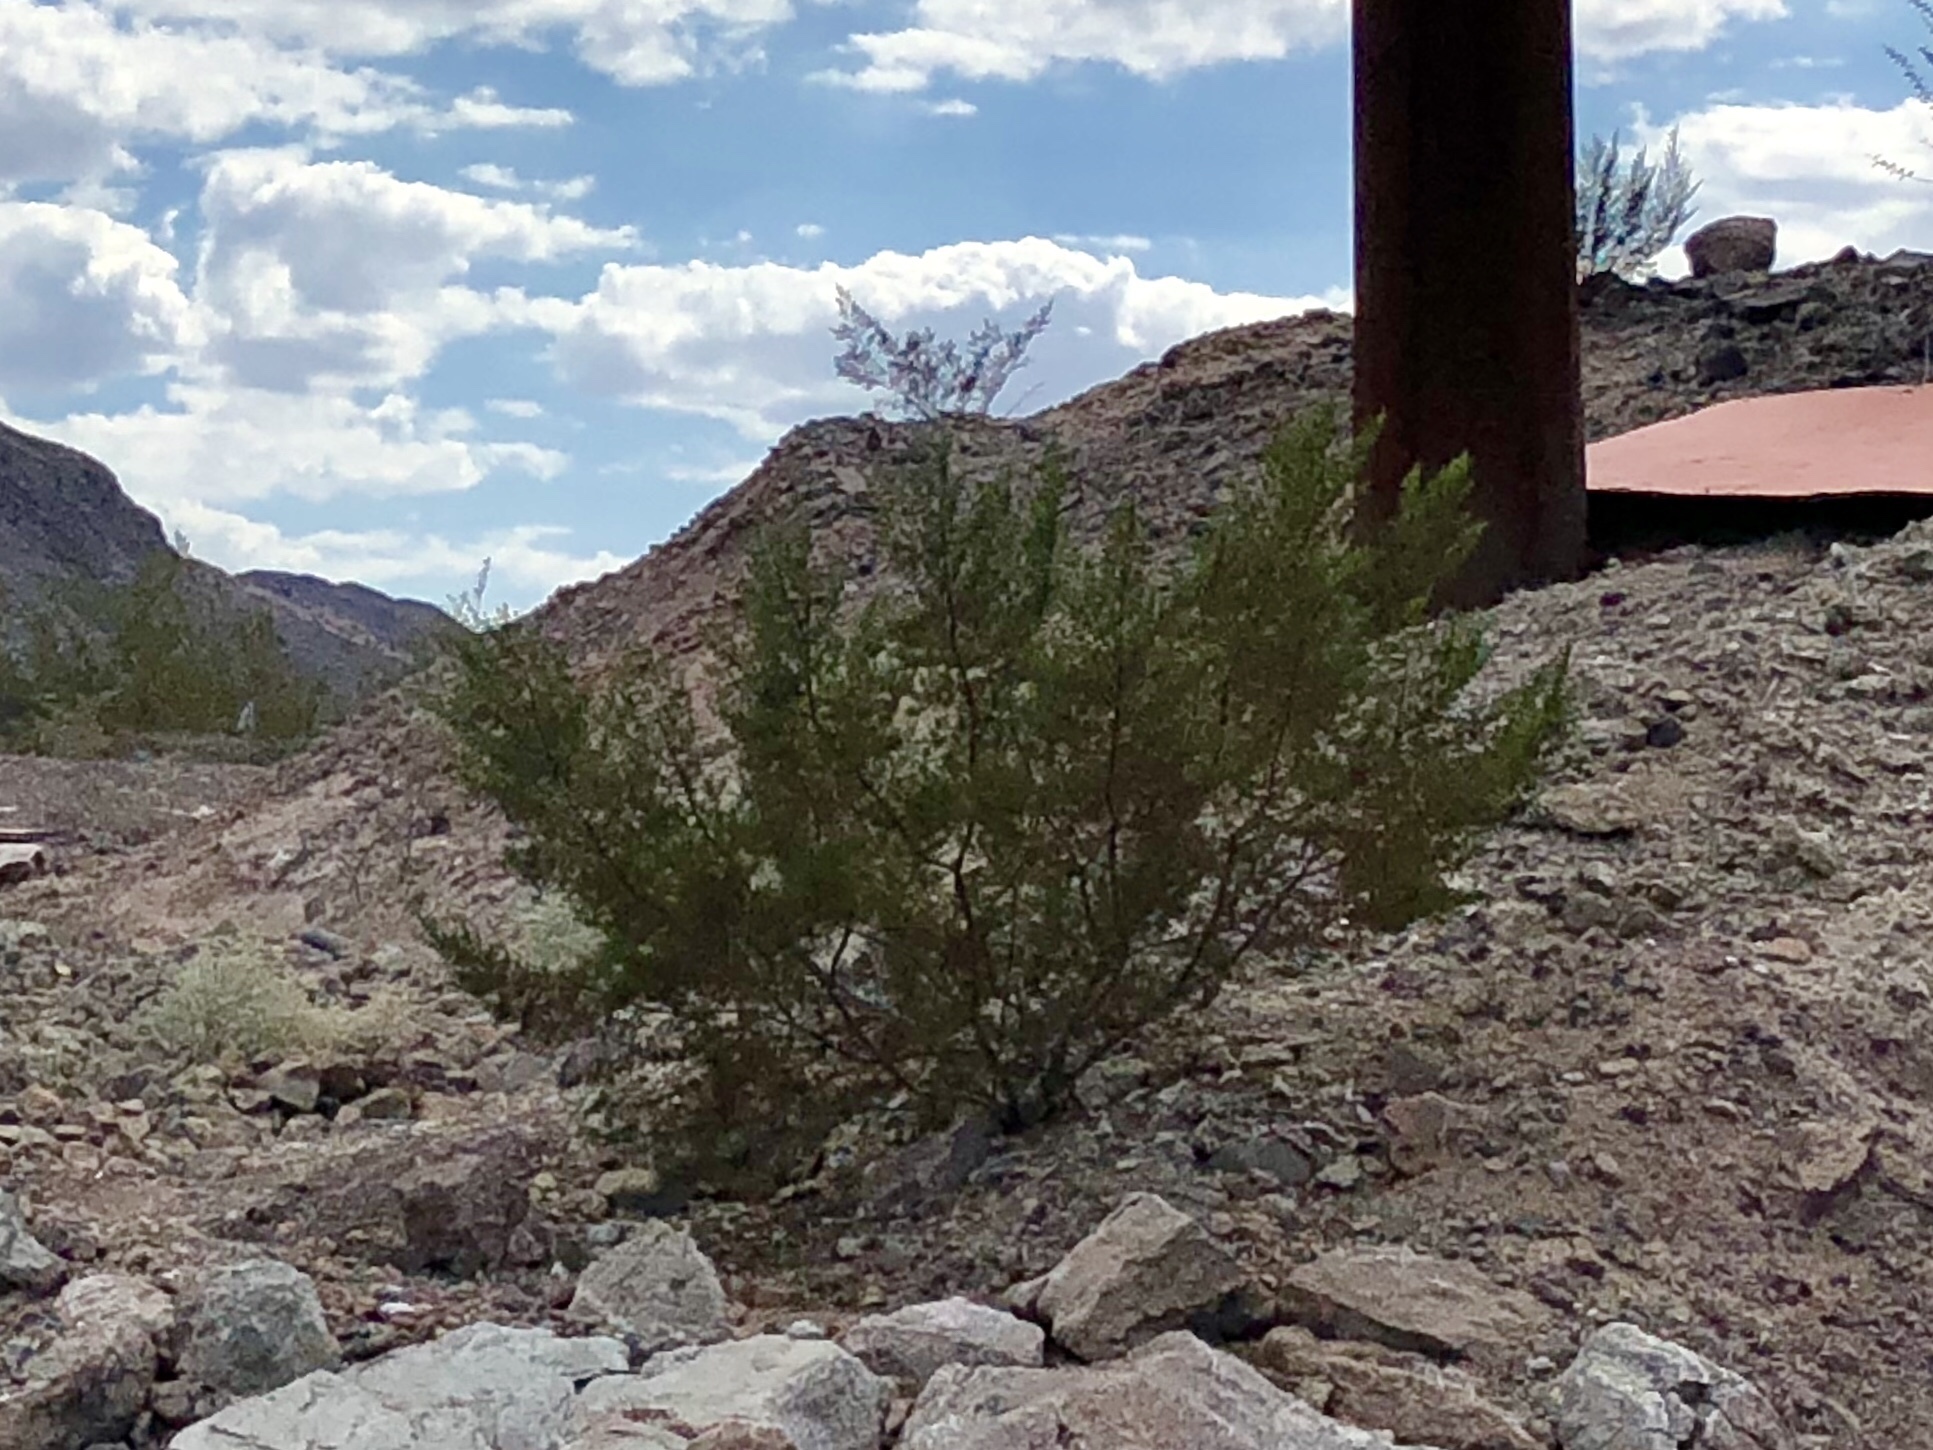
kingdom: Plantae
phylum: Tracheophyta
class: Magnoliopsida
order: Zygophyllales
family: Zygophyllaceae
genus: Larrea
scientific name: Larrea tridentata
